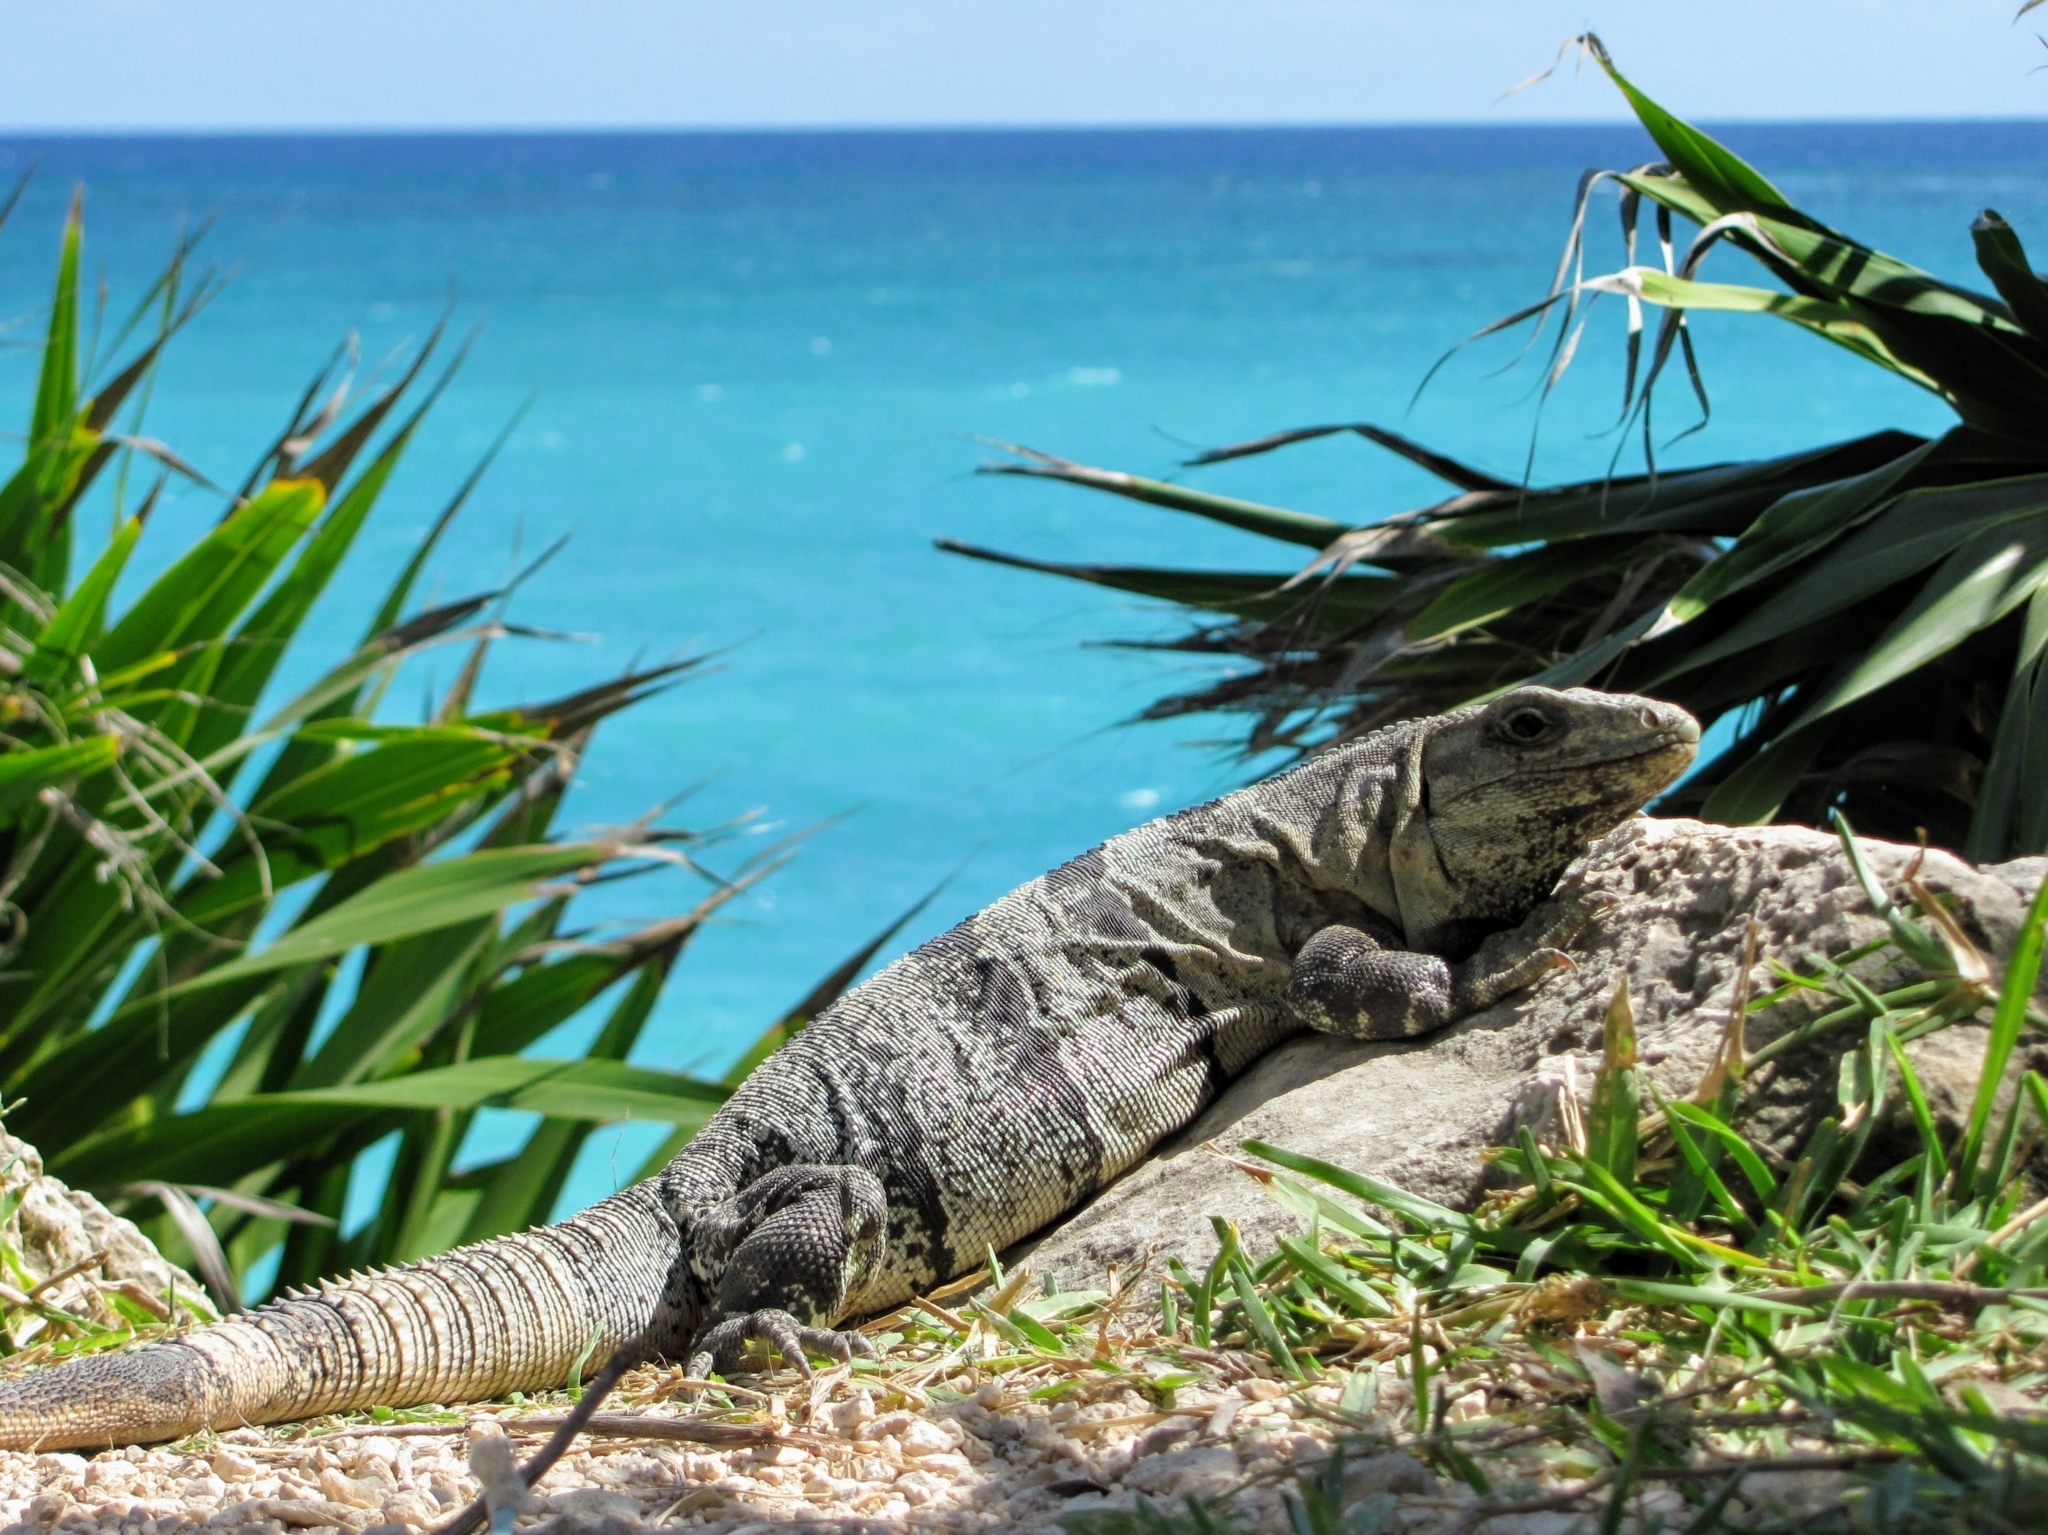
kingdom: Animalia
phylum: Chordata
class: Squamata
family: Iguanidae
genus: Ctenosaura
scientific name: Ctenosaura similis
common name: Black spiny-tailed iguana
